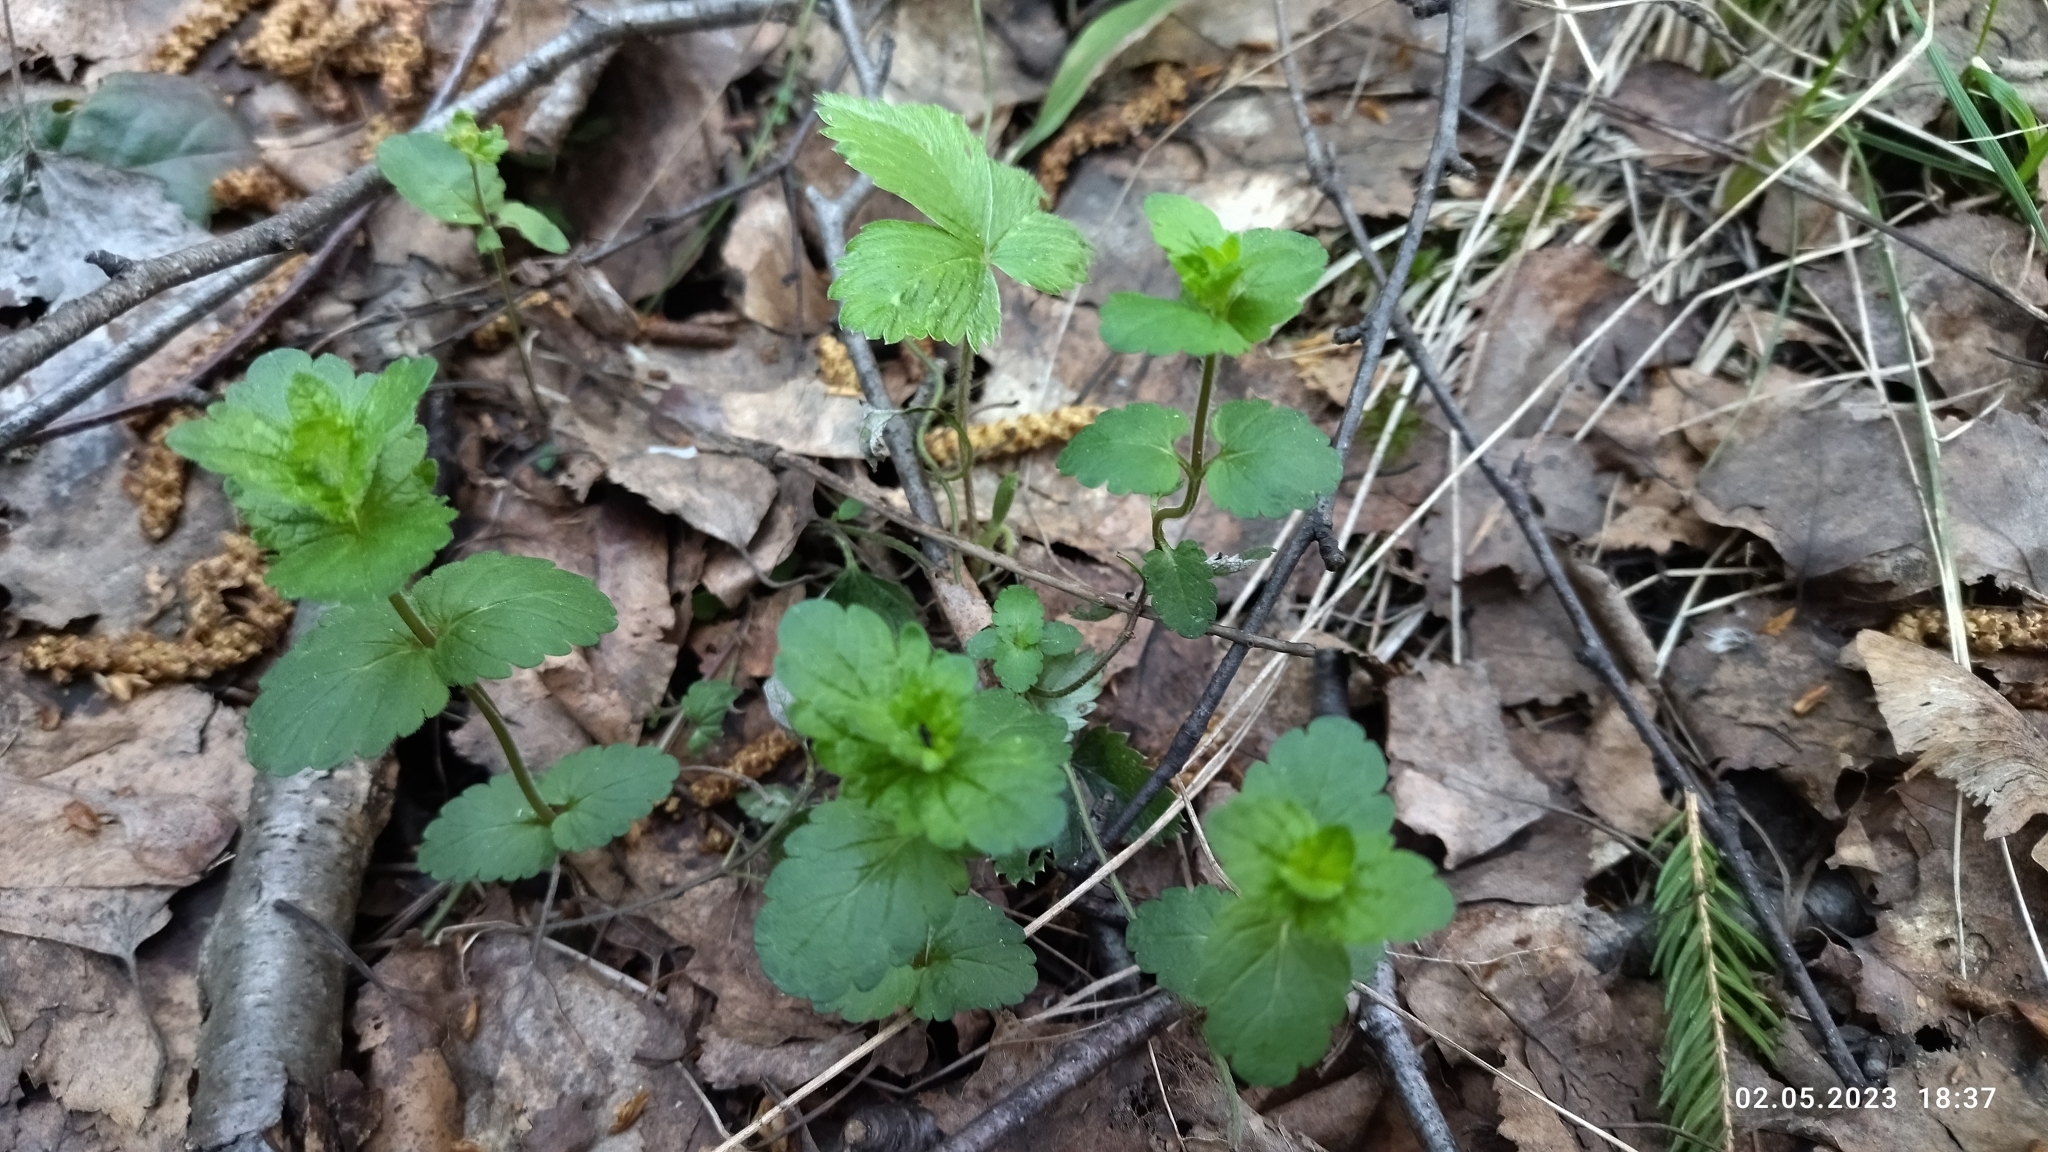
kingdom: Plantae
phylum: Tracheophyta
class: Magnoliopsida
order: Lamiales
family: Plantaginaceae
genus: Veronica
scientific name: Veronica chamaedrys
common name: Germander speedwell
